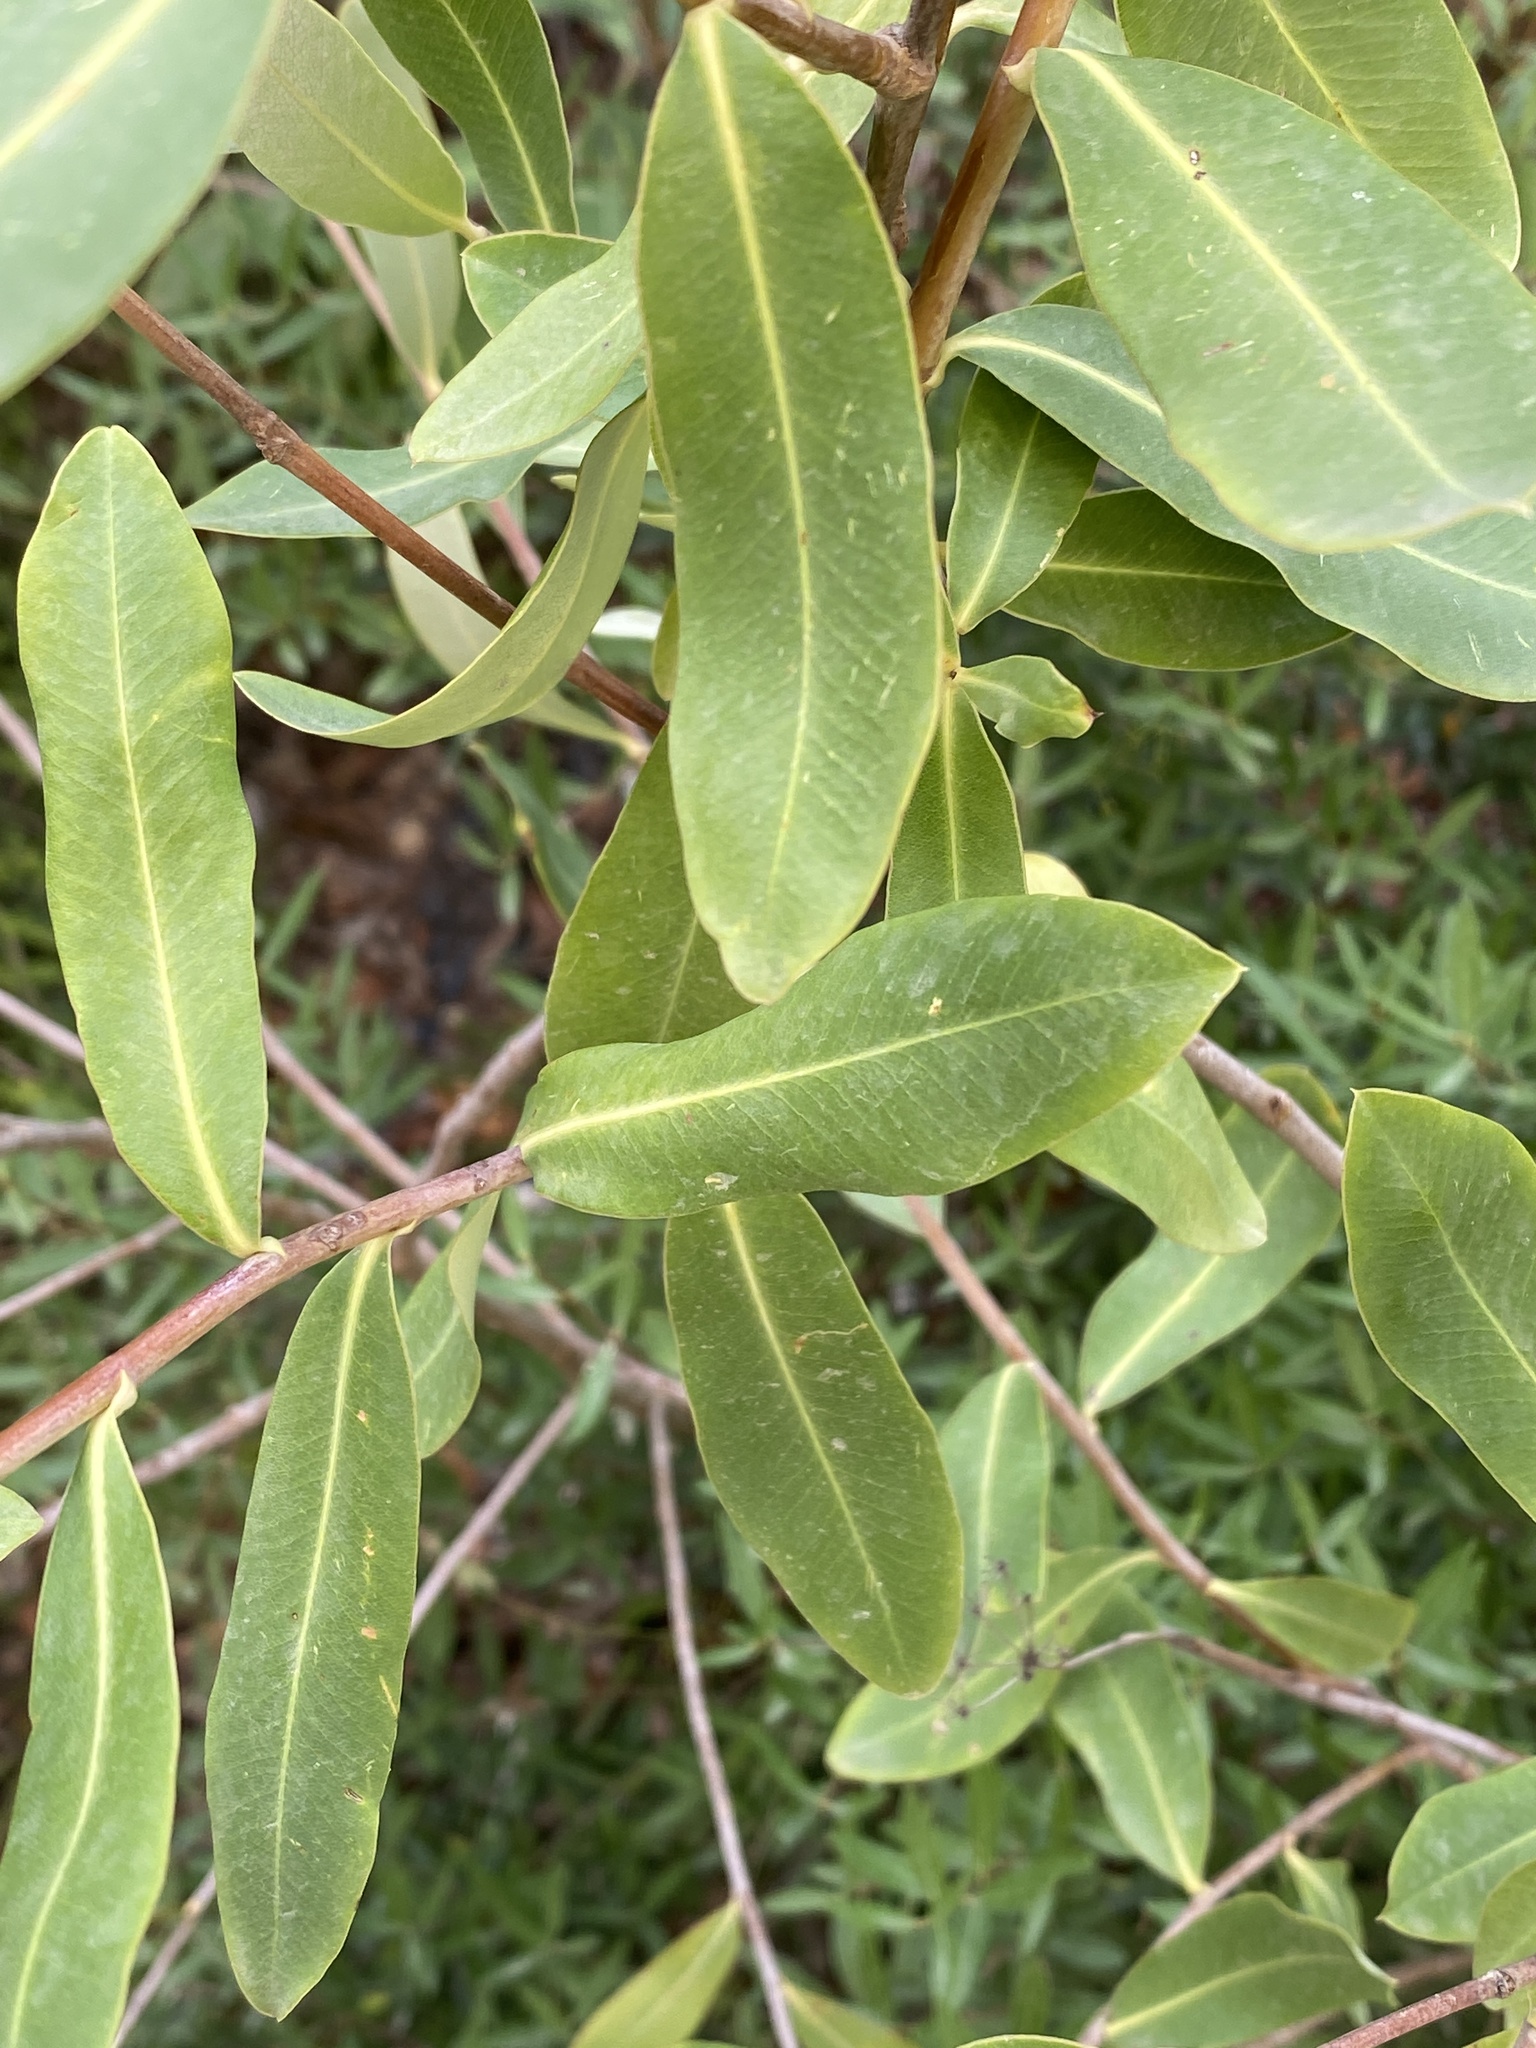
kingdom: Plantae
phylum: Tracheophyta
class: Magnoliopsida
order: Apiales
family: Apiaceae
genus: Bupleurum
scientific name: Bupleurum fruticosum
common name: Shrubby hare's-ear
